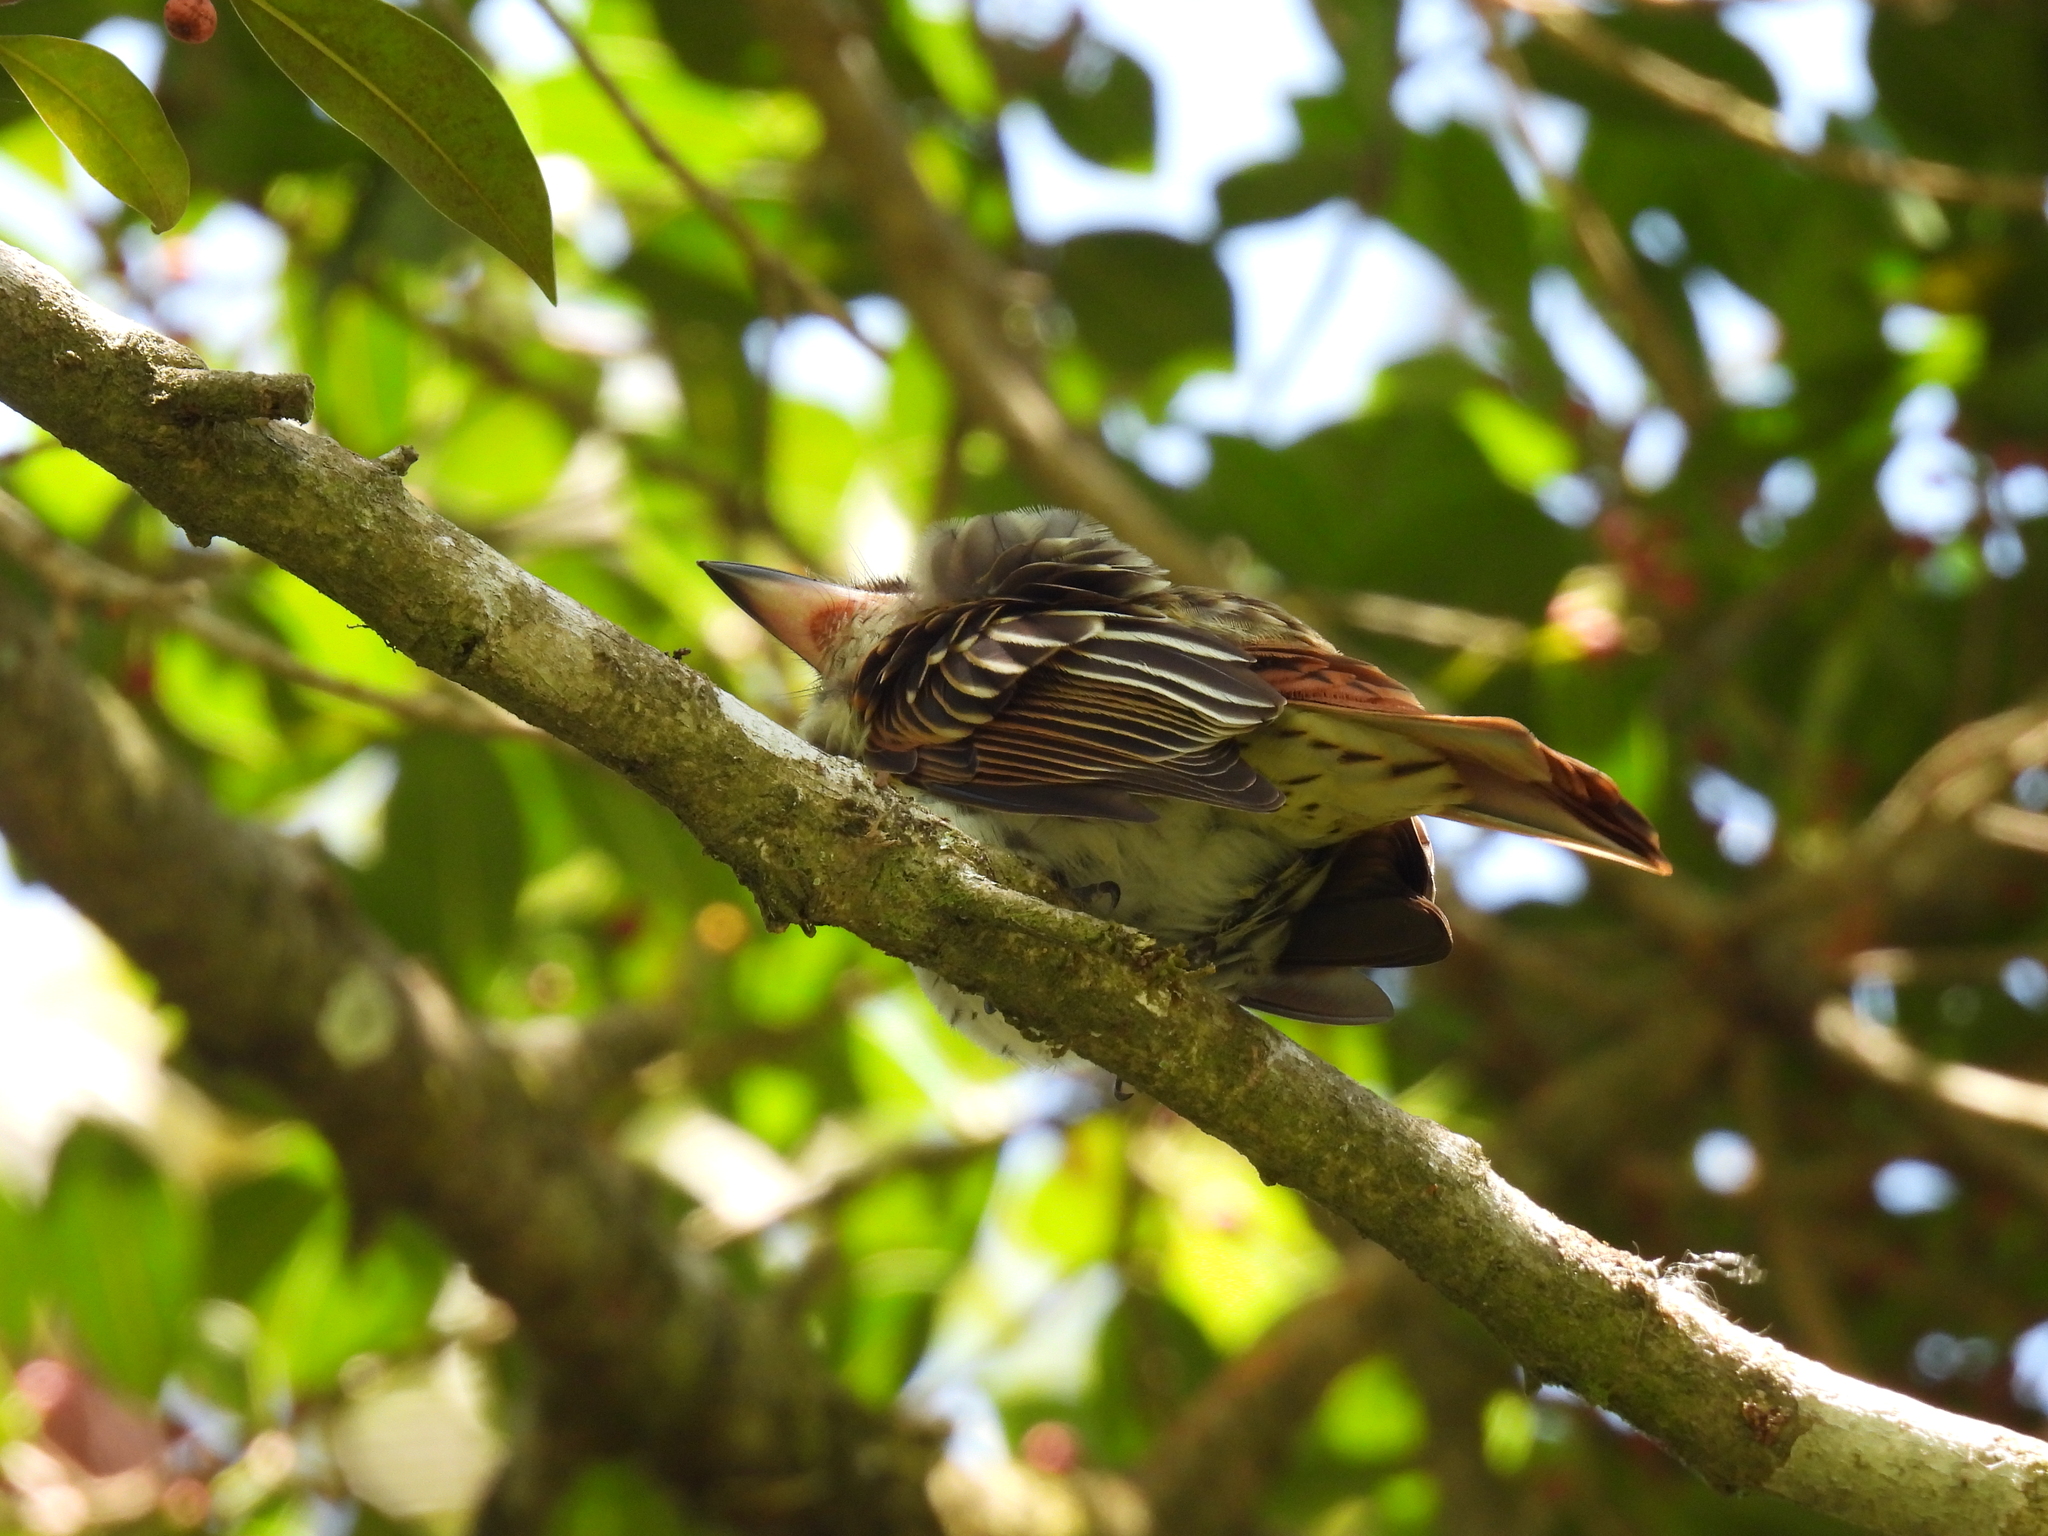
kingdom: Animalia
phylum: Chordata
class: Aves
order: Passeriformes
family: Tyrannidae
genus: Myiodynastes
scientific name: Myiodynastes maculatus
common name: Streaked flycatcher
